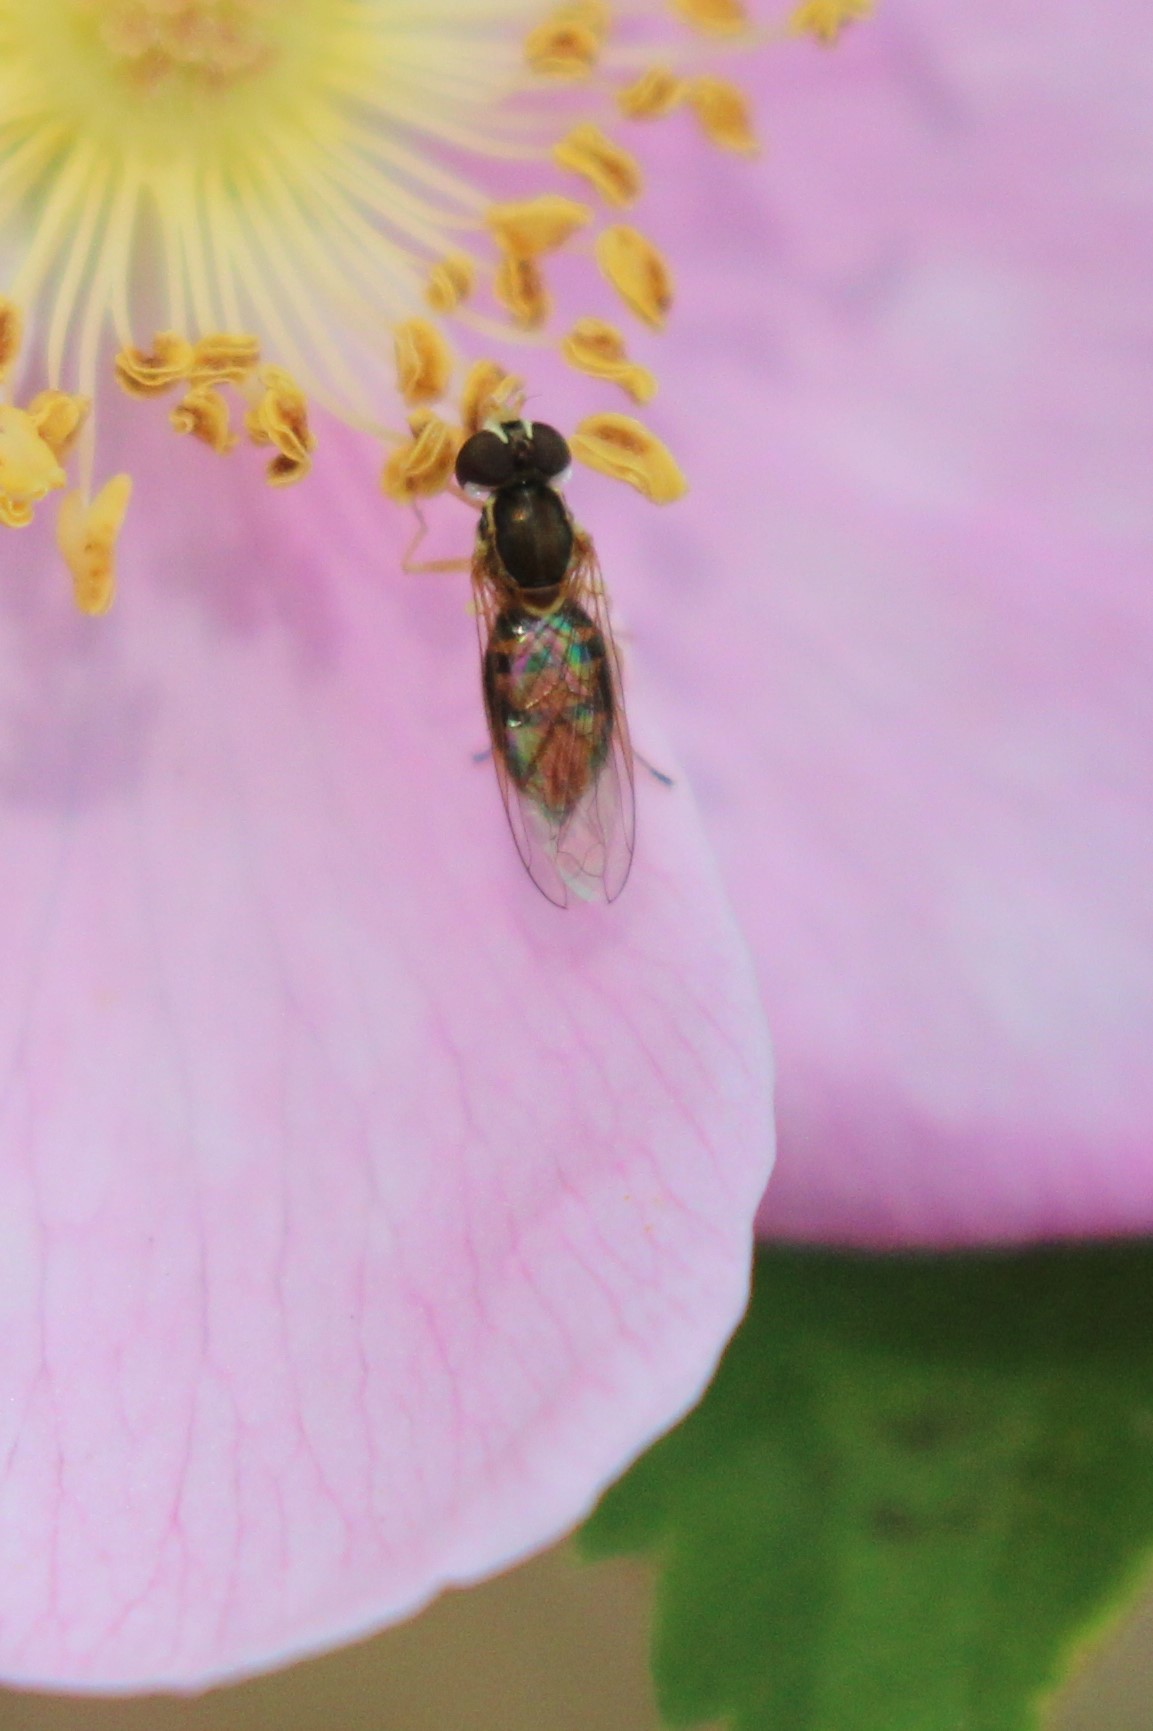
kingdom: Animalia
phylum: Arthropoda
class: Insecta
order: Diptera
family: Syrphidae
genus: Toxomerus
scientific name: Toxomerus marginatus
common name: Syrphid fly
